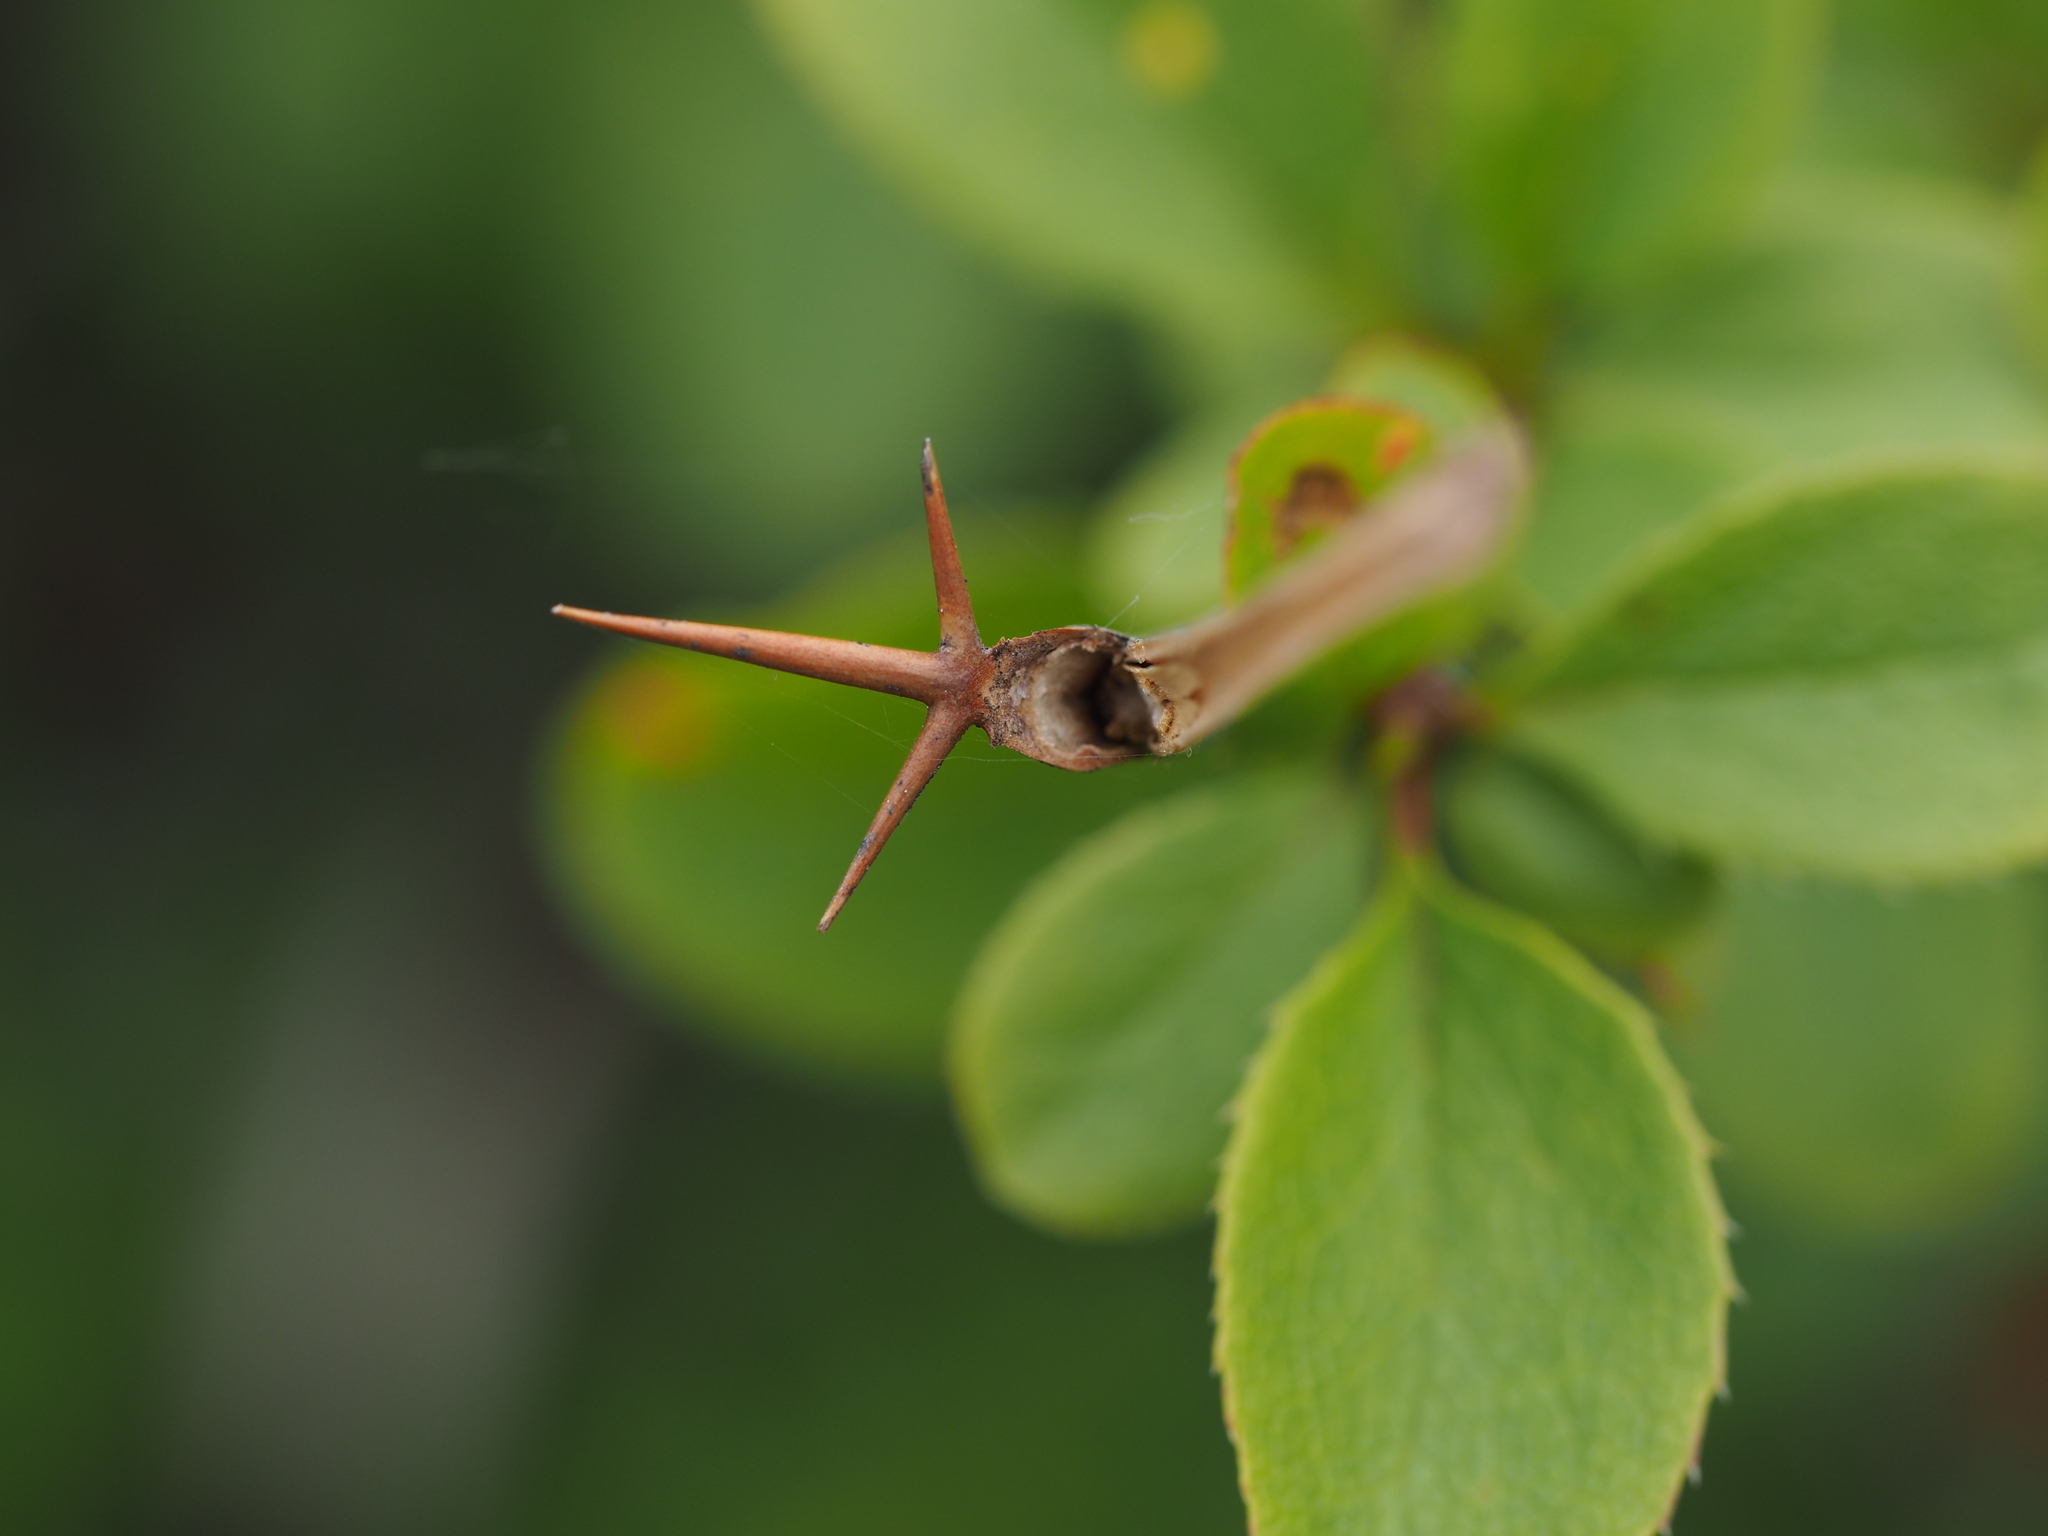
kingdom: Plantae
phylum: Tracheophyta
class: Magnoliopsida
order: Ranunculales
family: Berberidaceae
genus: Berberis
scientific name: Berberis vulgaris
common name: Barberry
